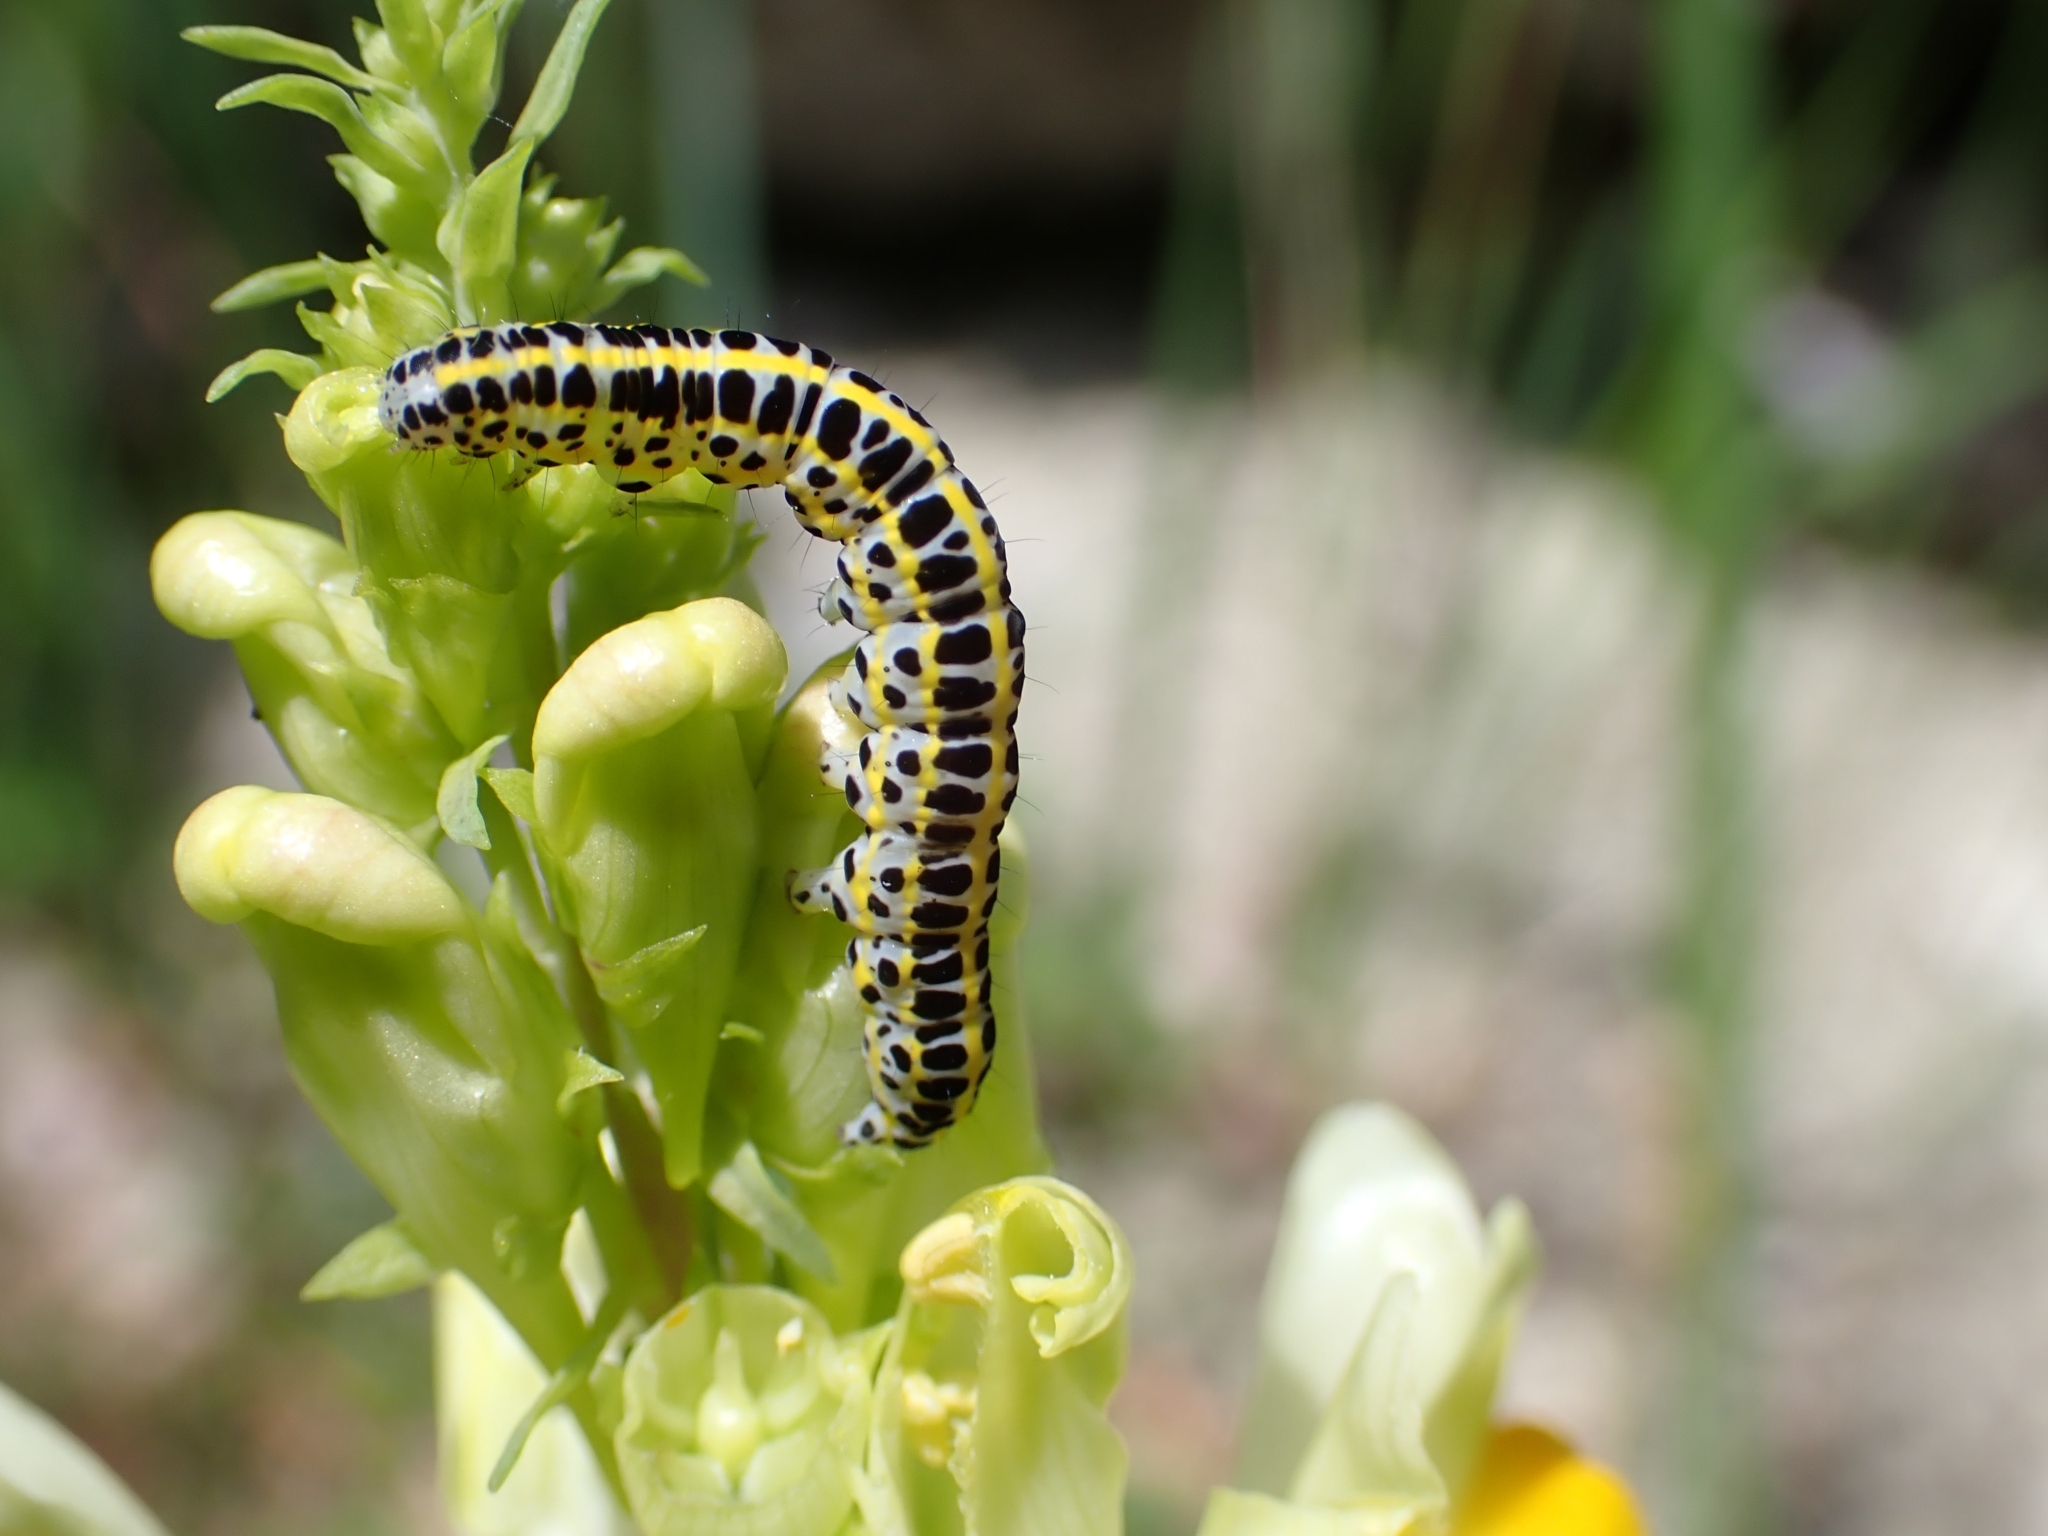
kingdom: Animalia
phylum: Arthropoda
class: Insecta
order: Lepidoptera
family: Noctuidae
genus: Calophasia
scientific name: Calophasia lunula
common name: Toadflax brocade
